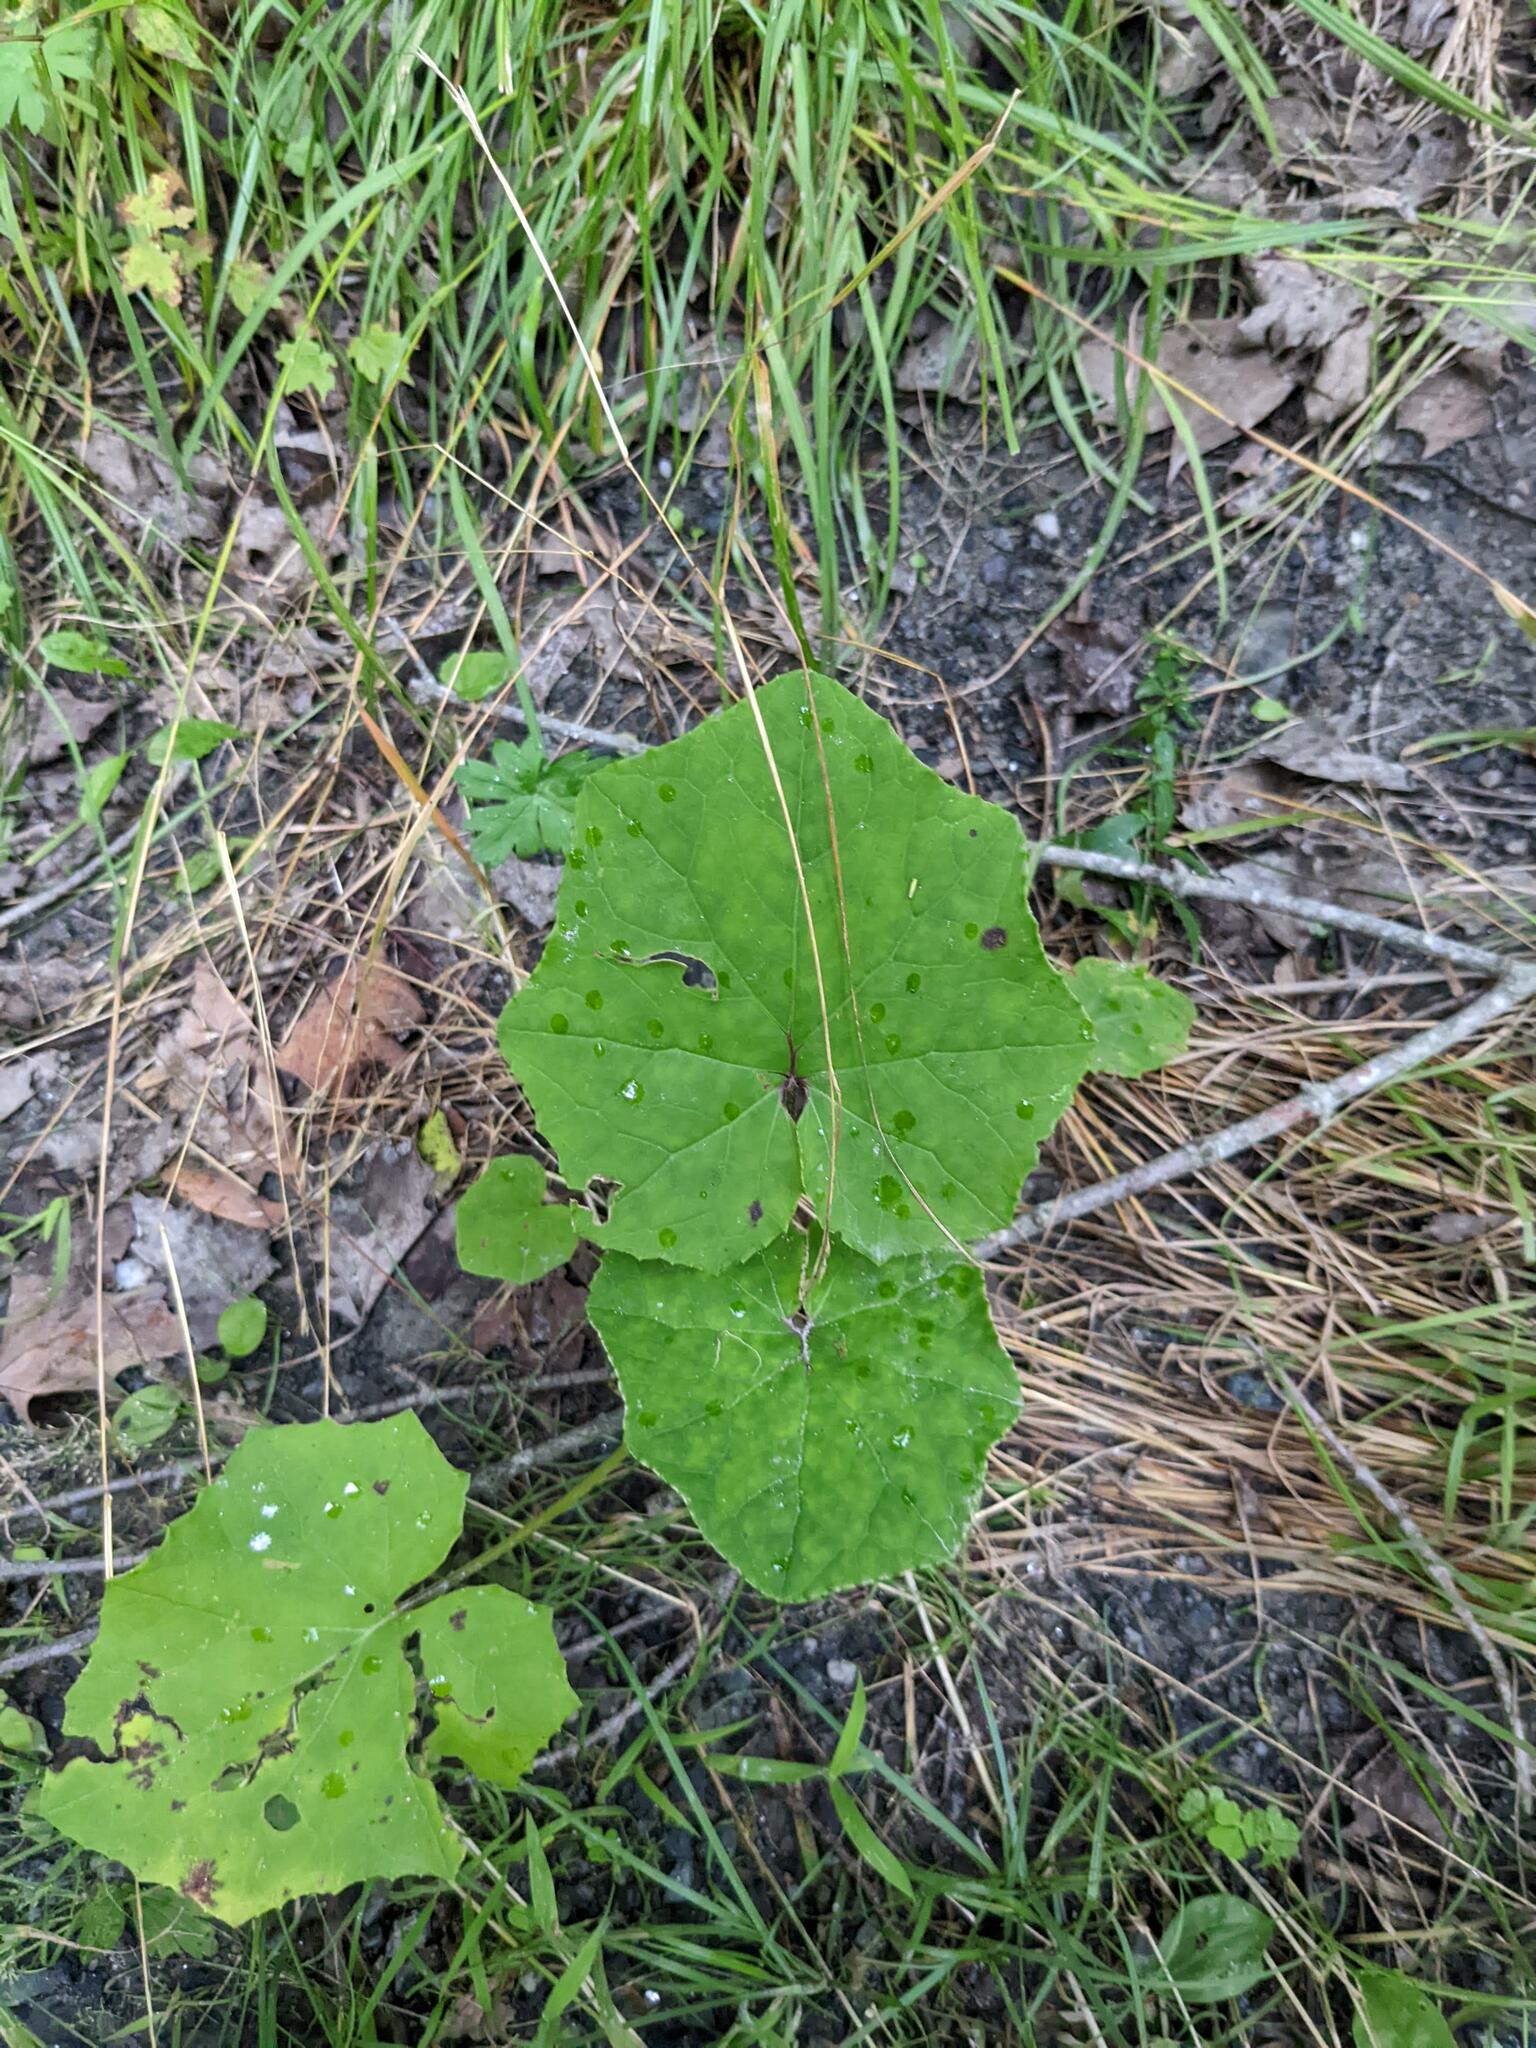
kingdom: Plantae
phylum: Tracheophyta
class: Magnoliopsida
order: Asterales
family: Asteraceae
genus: Tussilago
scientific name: Tussilago farfara
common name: Coltsfoot
